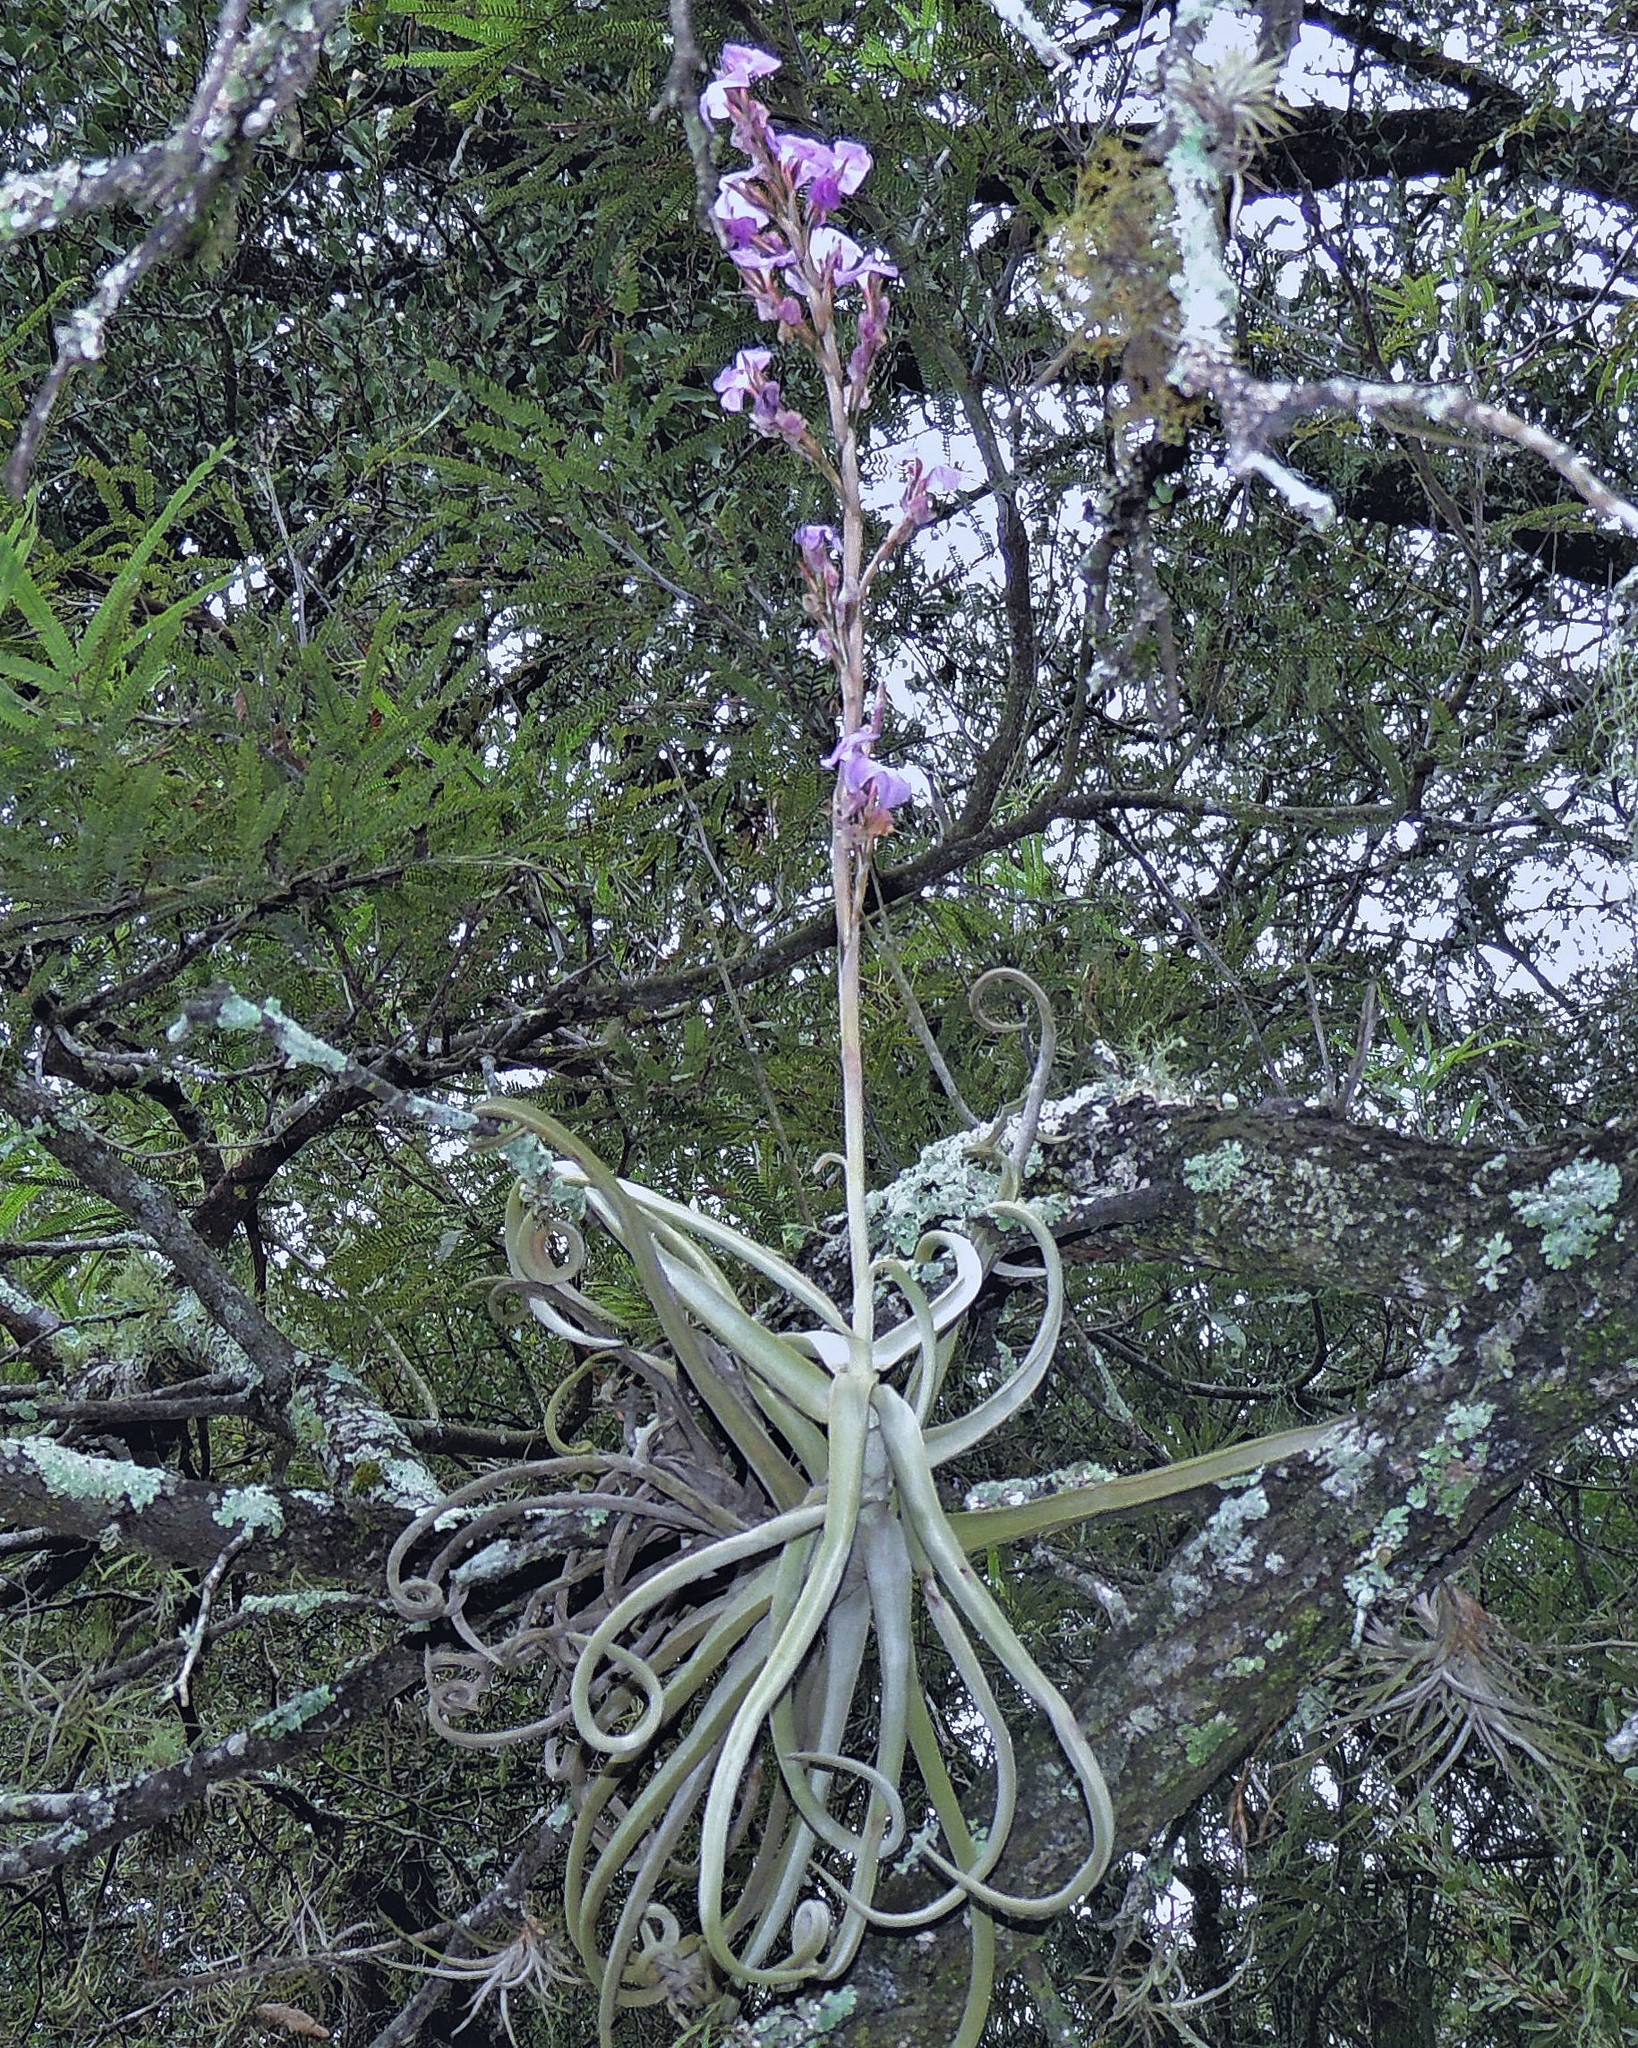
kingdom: Plantae
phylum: Tracheophyta
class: Liliopsida
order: Poales
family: Bromeliaceae
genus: Tillandsia
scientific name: Tillandsia duratii
